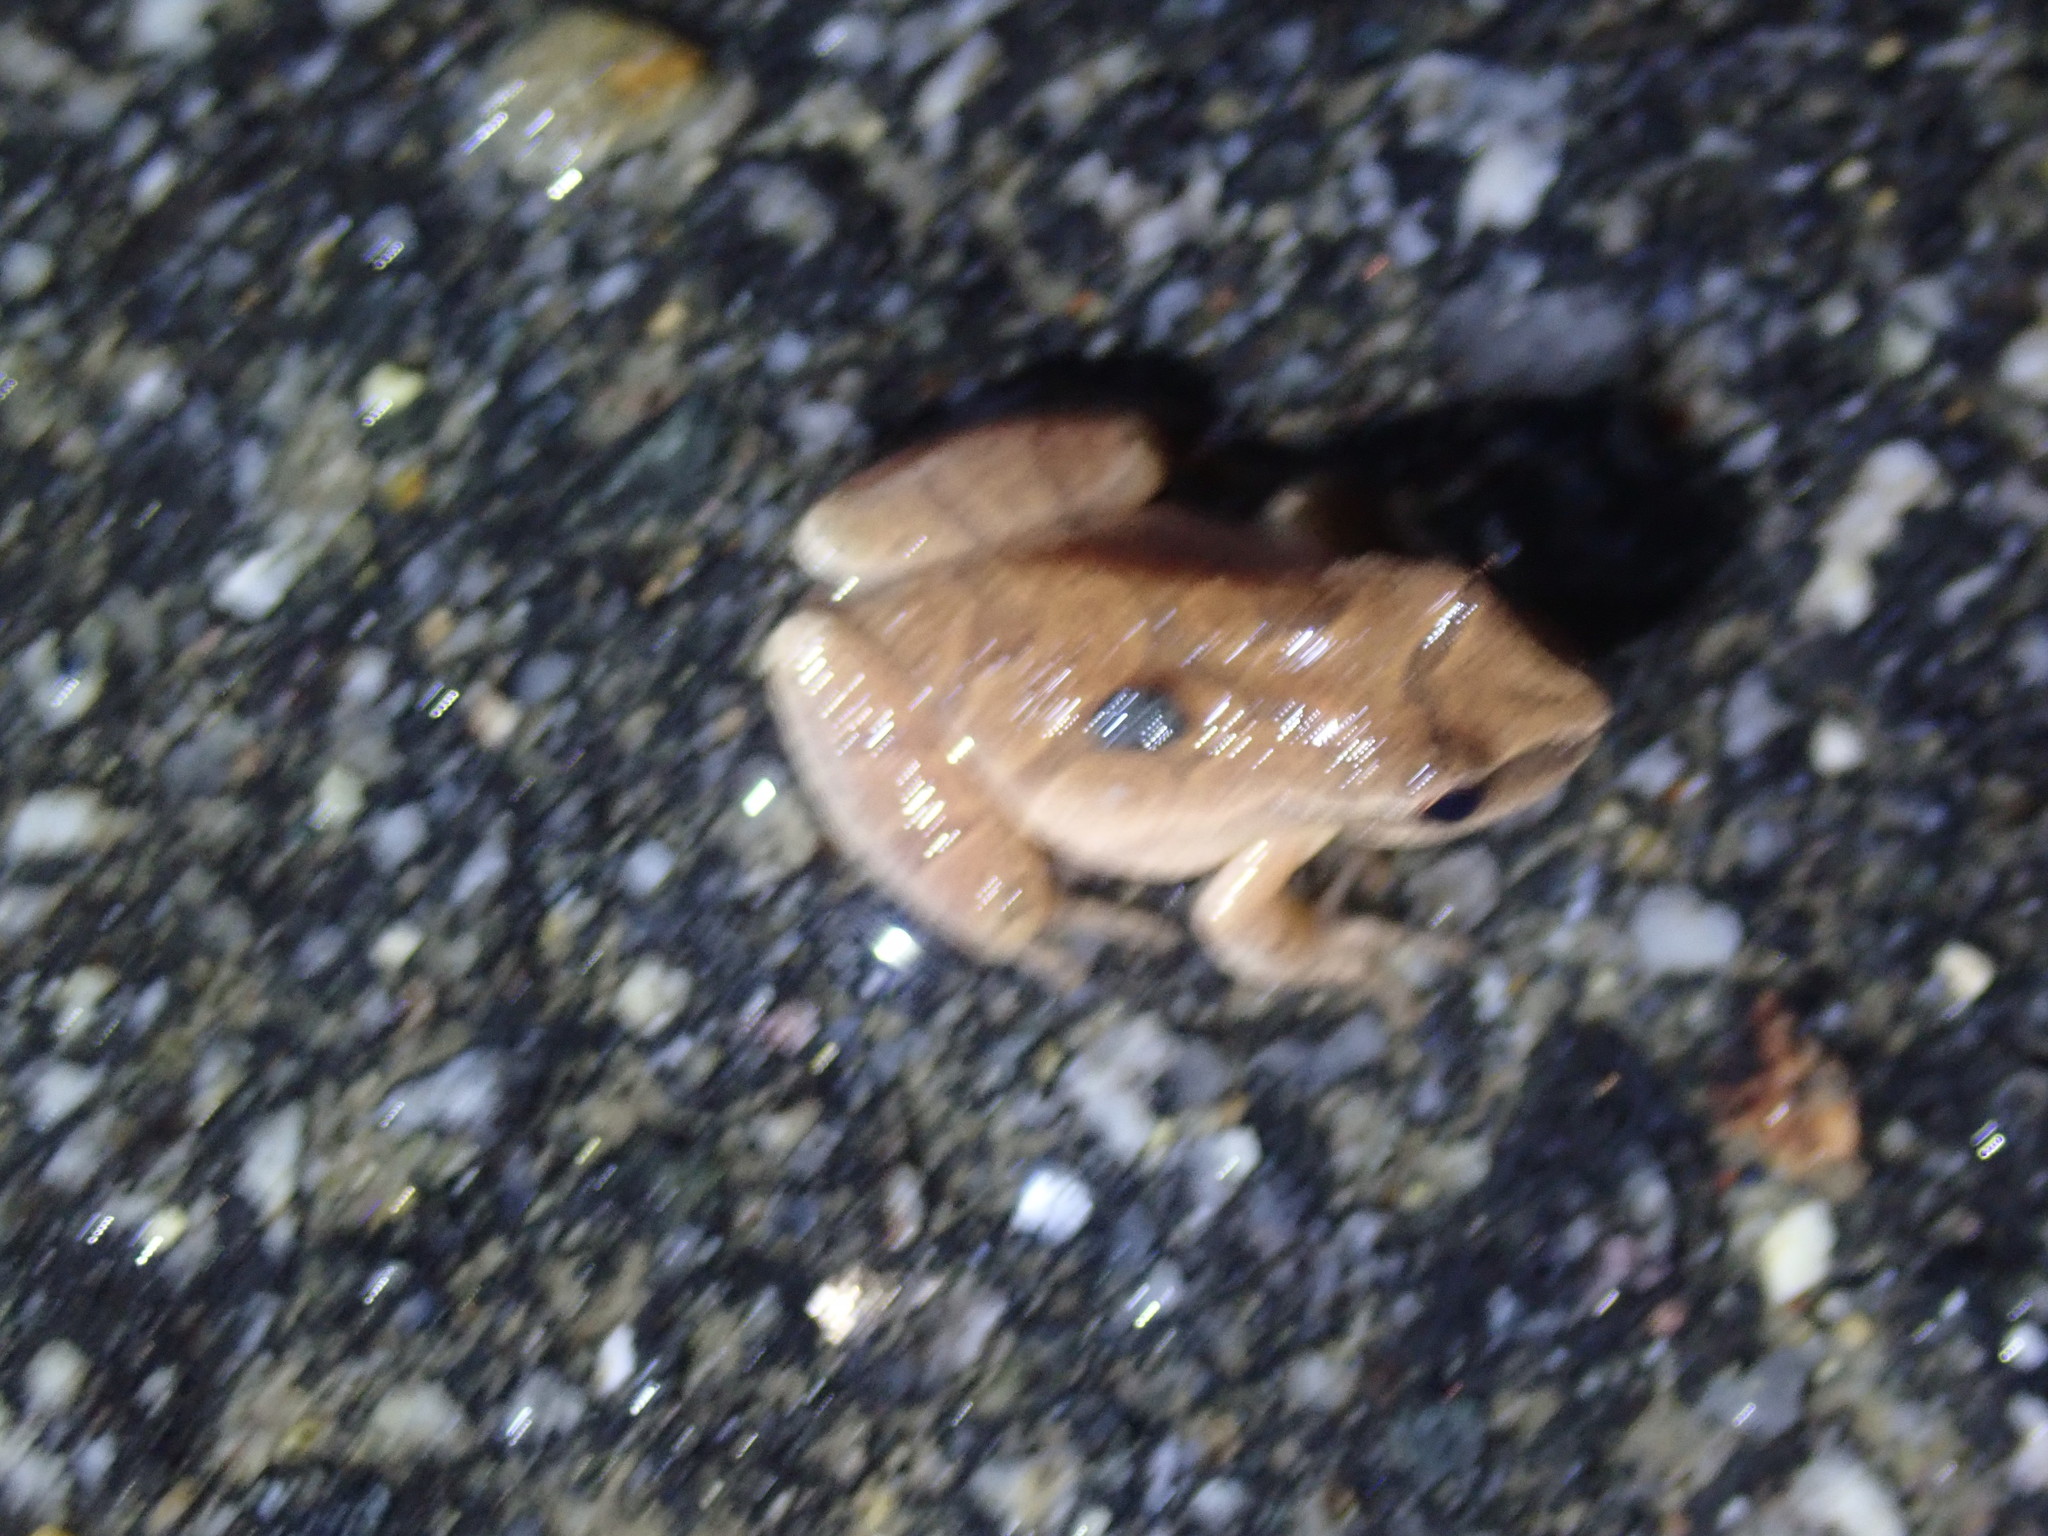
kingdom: Animalia
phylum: Chordata
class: Amphibia
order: Anura
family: Hylidae
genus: Pseudacris
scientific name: Pseudacris crucifer
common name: Spring peeper
